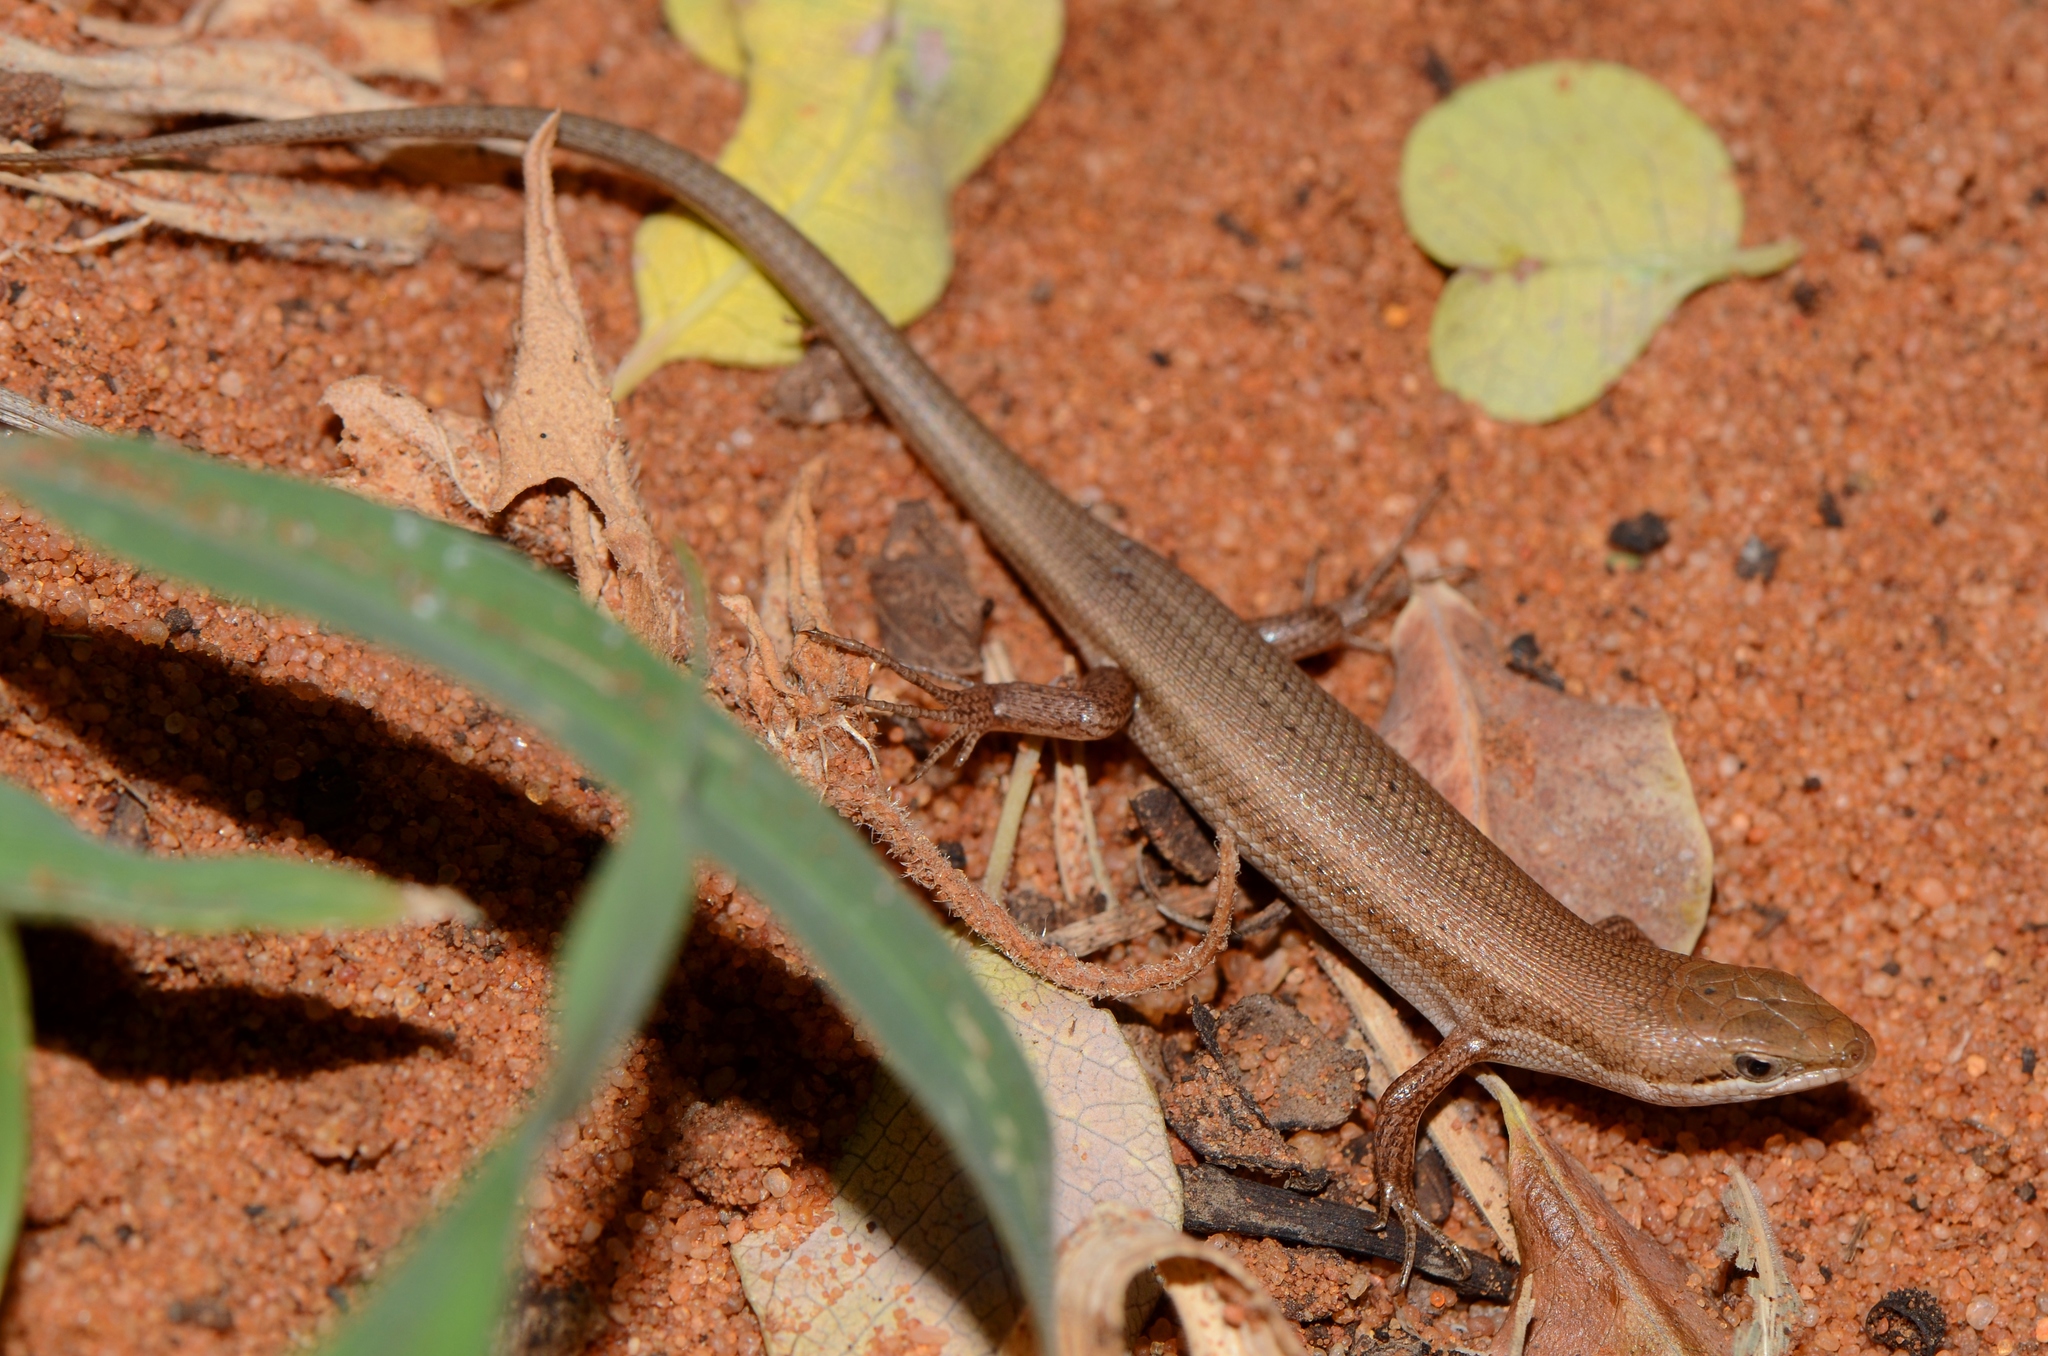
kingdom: Animalia
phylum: Chordata
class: Squamata
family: Scincidae
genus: Trachylepis
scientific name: Trachylepis punctulata
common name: Speckled sand skink
